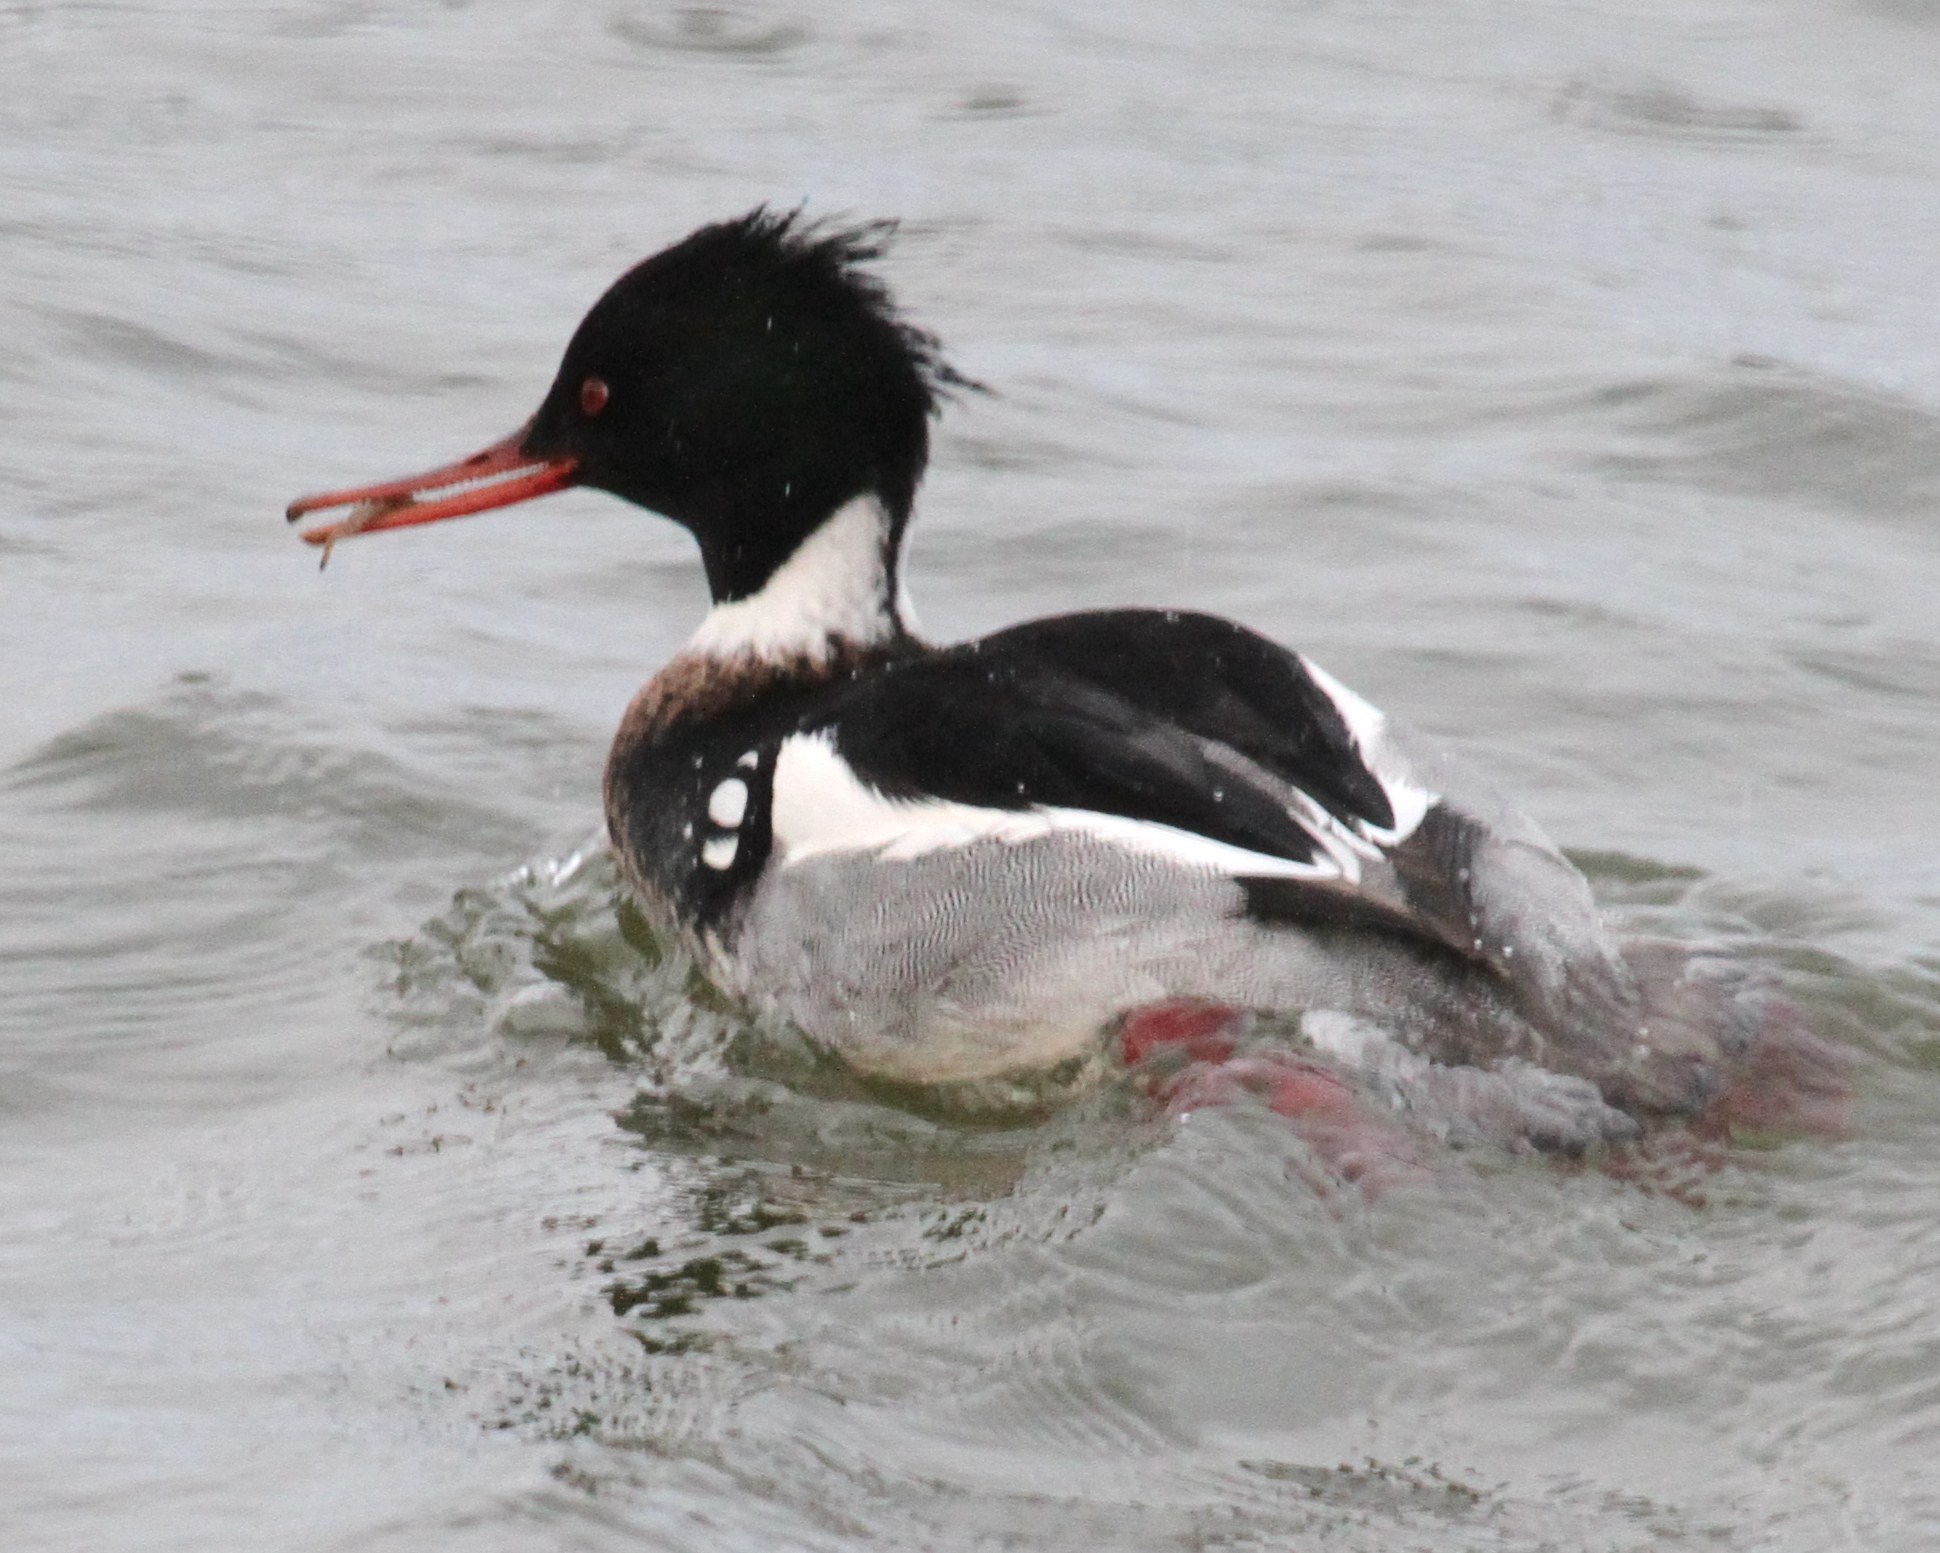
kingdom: Animalia
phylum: Chordata
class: Aves
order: Anseriformes
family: Anatidae
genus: Mergus
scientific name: Mergus serrator
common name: Red-breasted merganser
